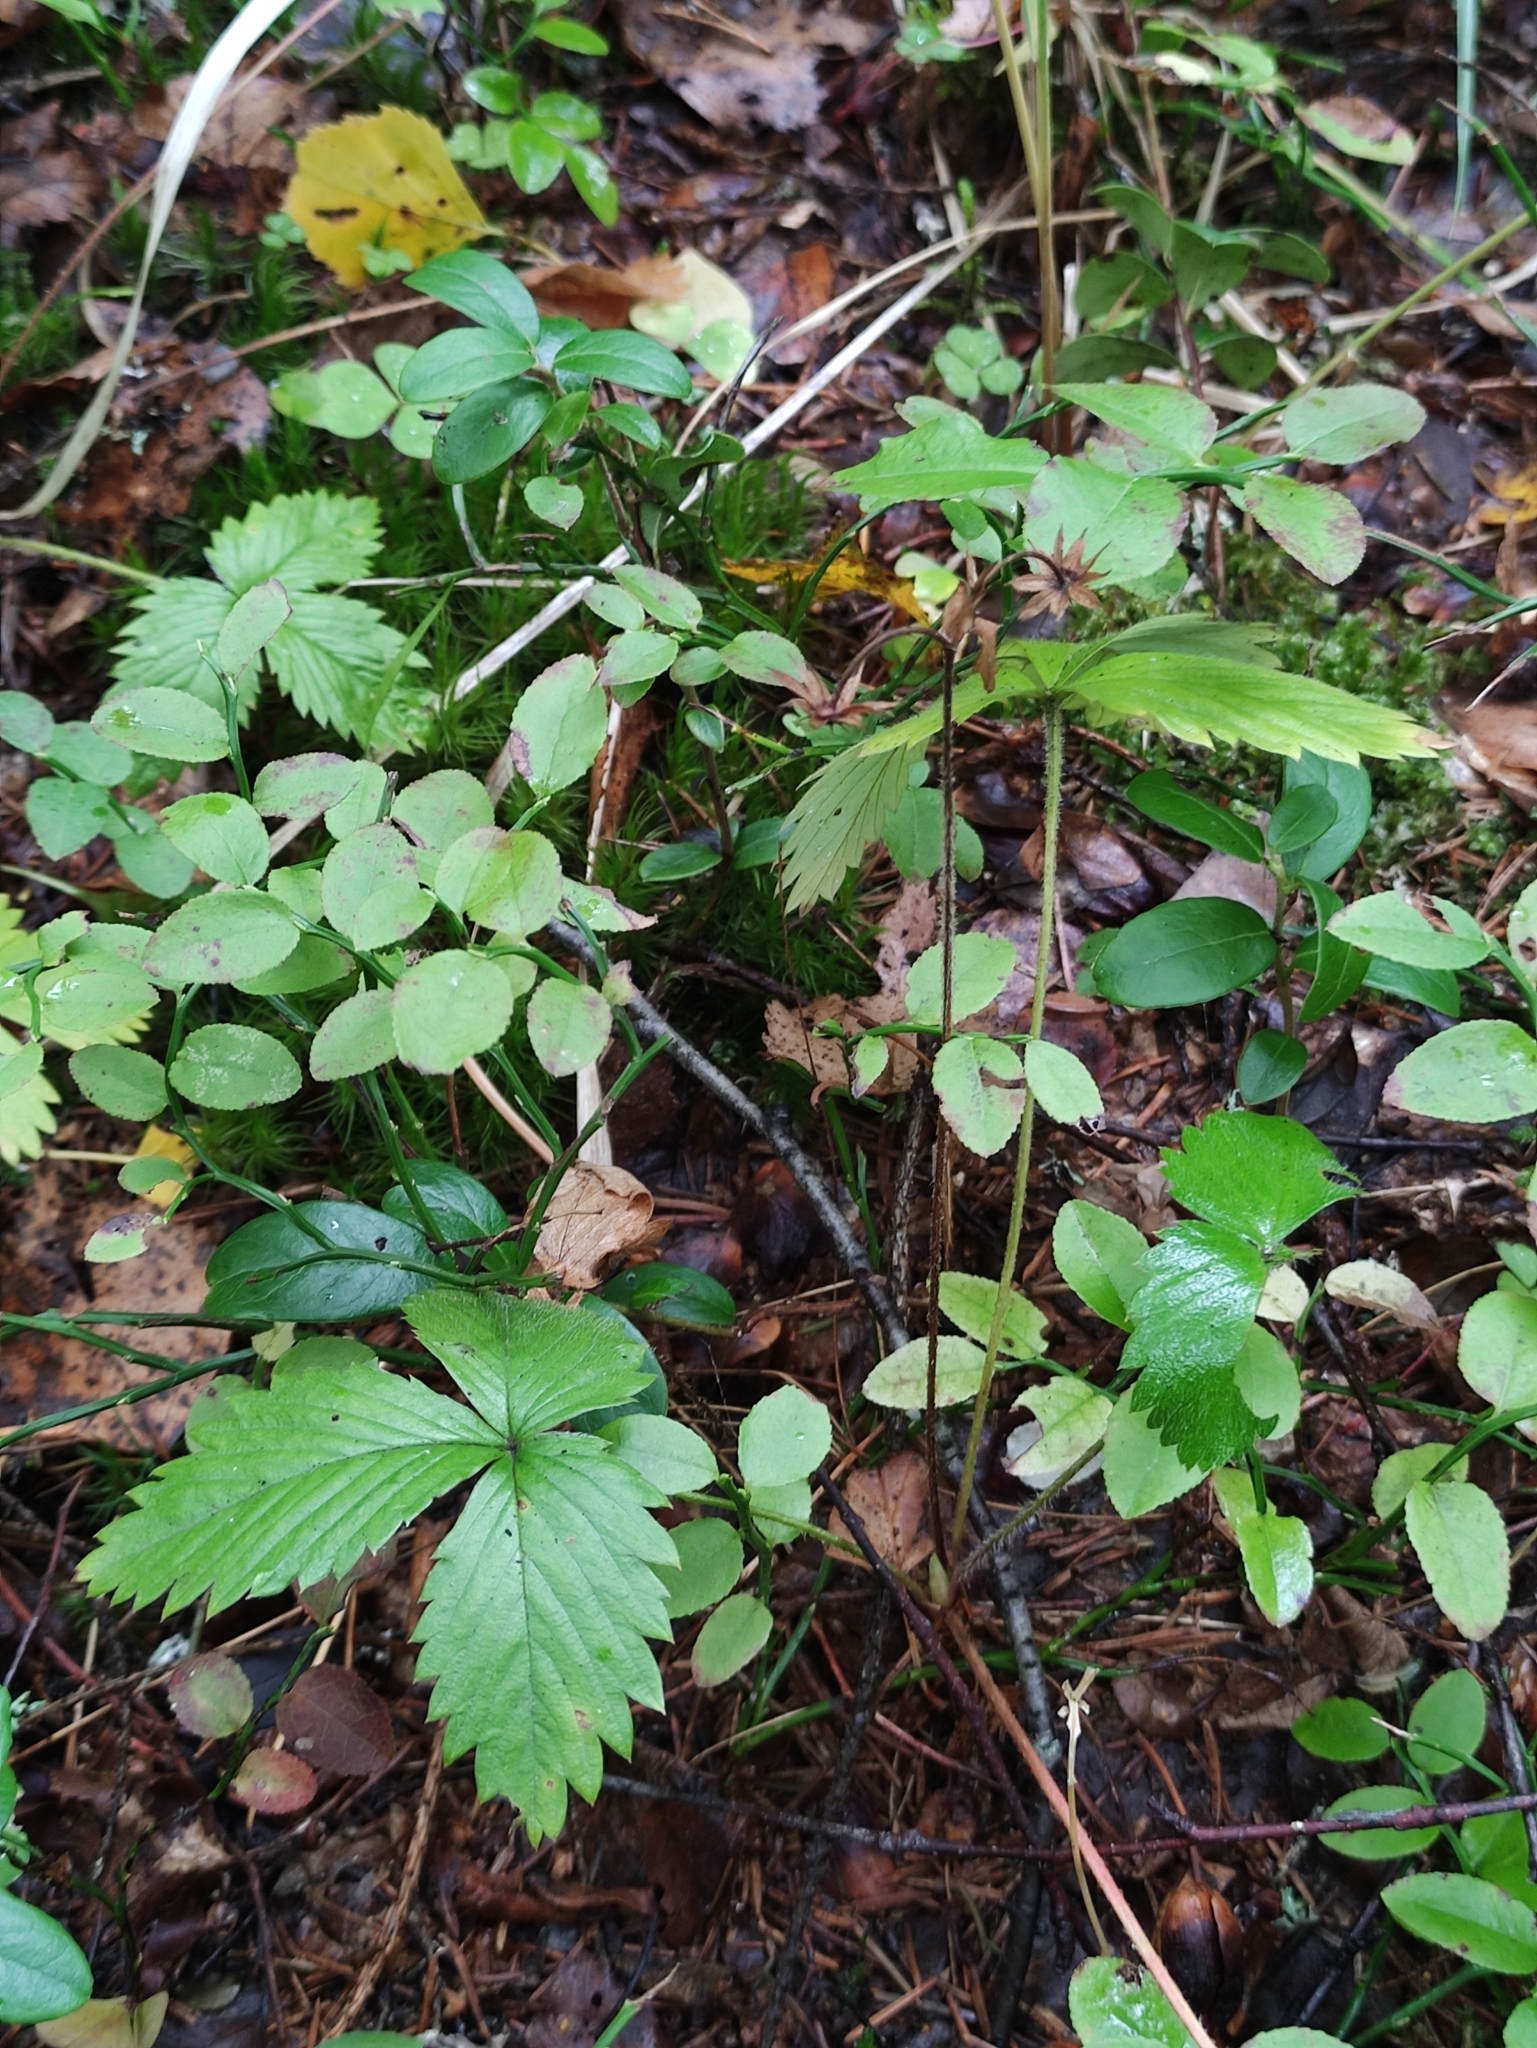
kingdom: Plantae
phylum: Tracheophyta
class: Magnoliopsida
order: Rosales
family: Rosaceae
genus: Fragaria
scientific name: Fragaria vesca
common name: Wild strawberry
